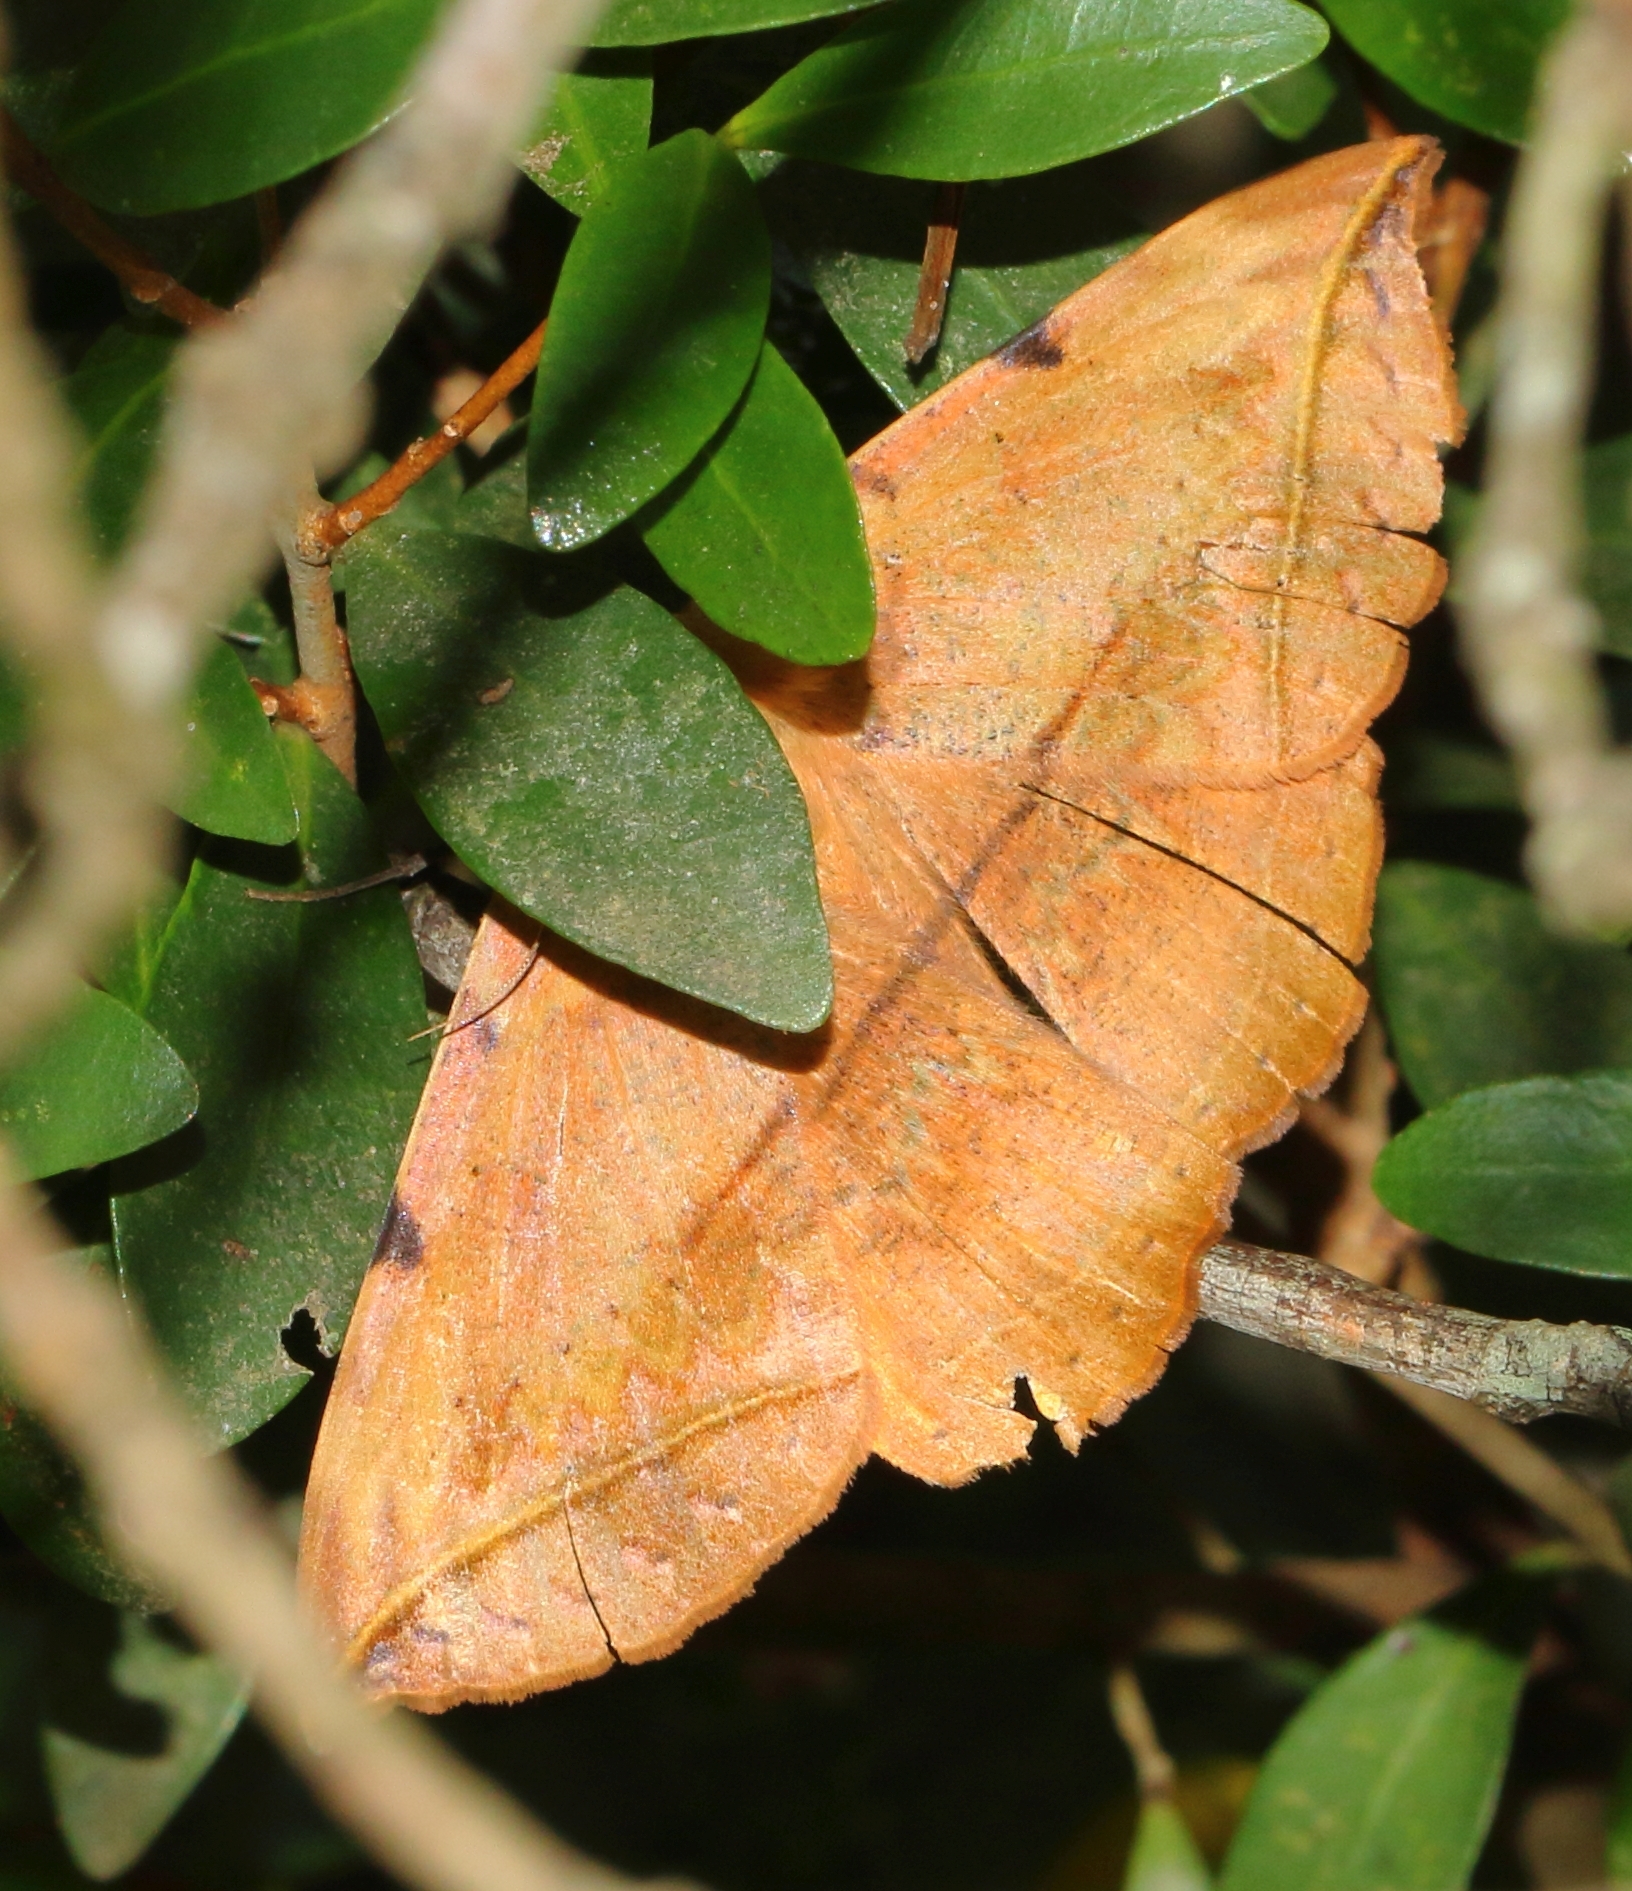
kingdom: Animalia
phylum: Arthropoda
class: Insecta
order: Lepidoptera
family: Erebidae
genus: Hypopyra
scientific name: Hypopyra capensis
